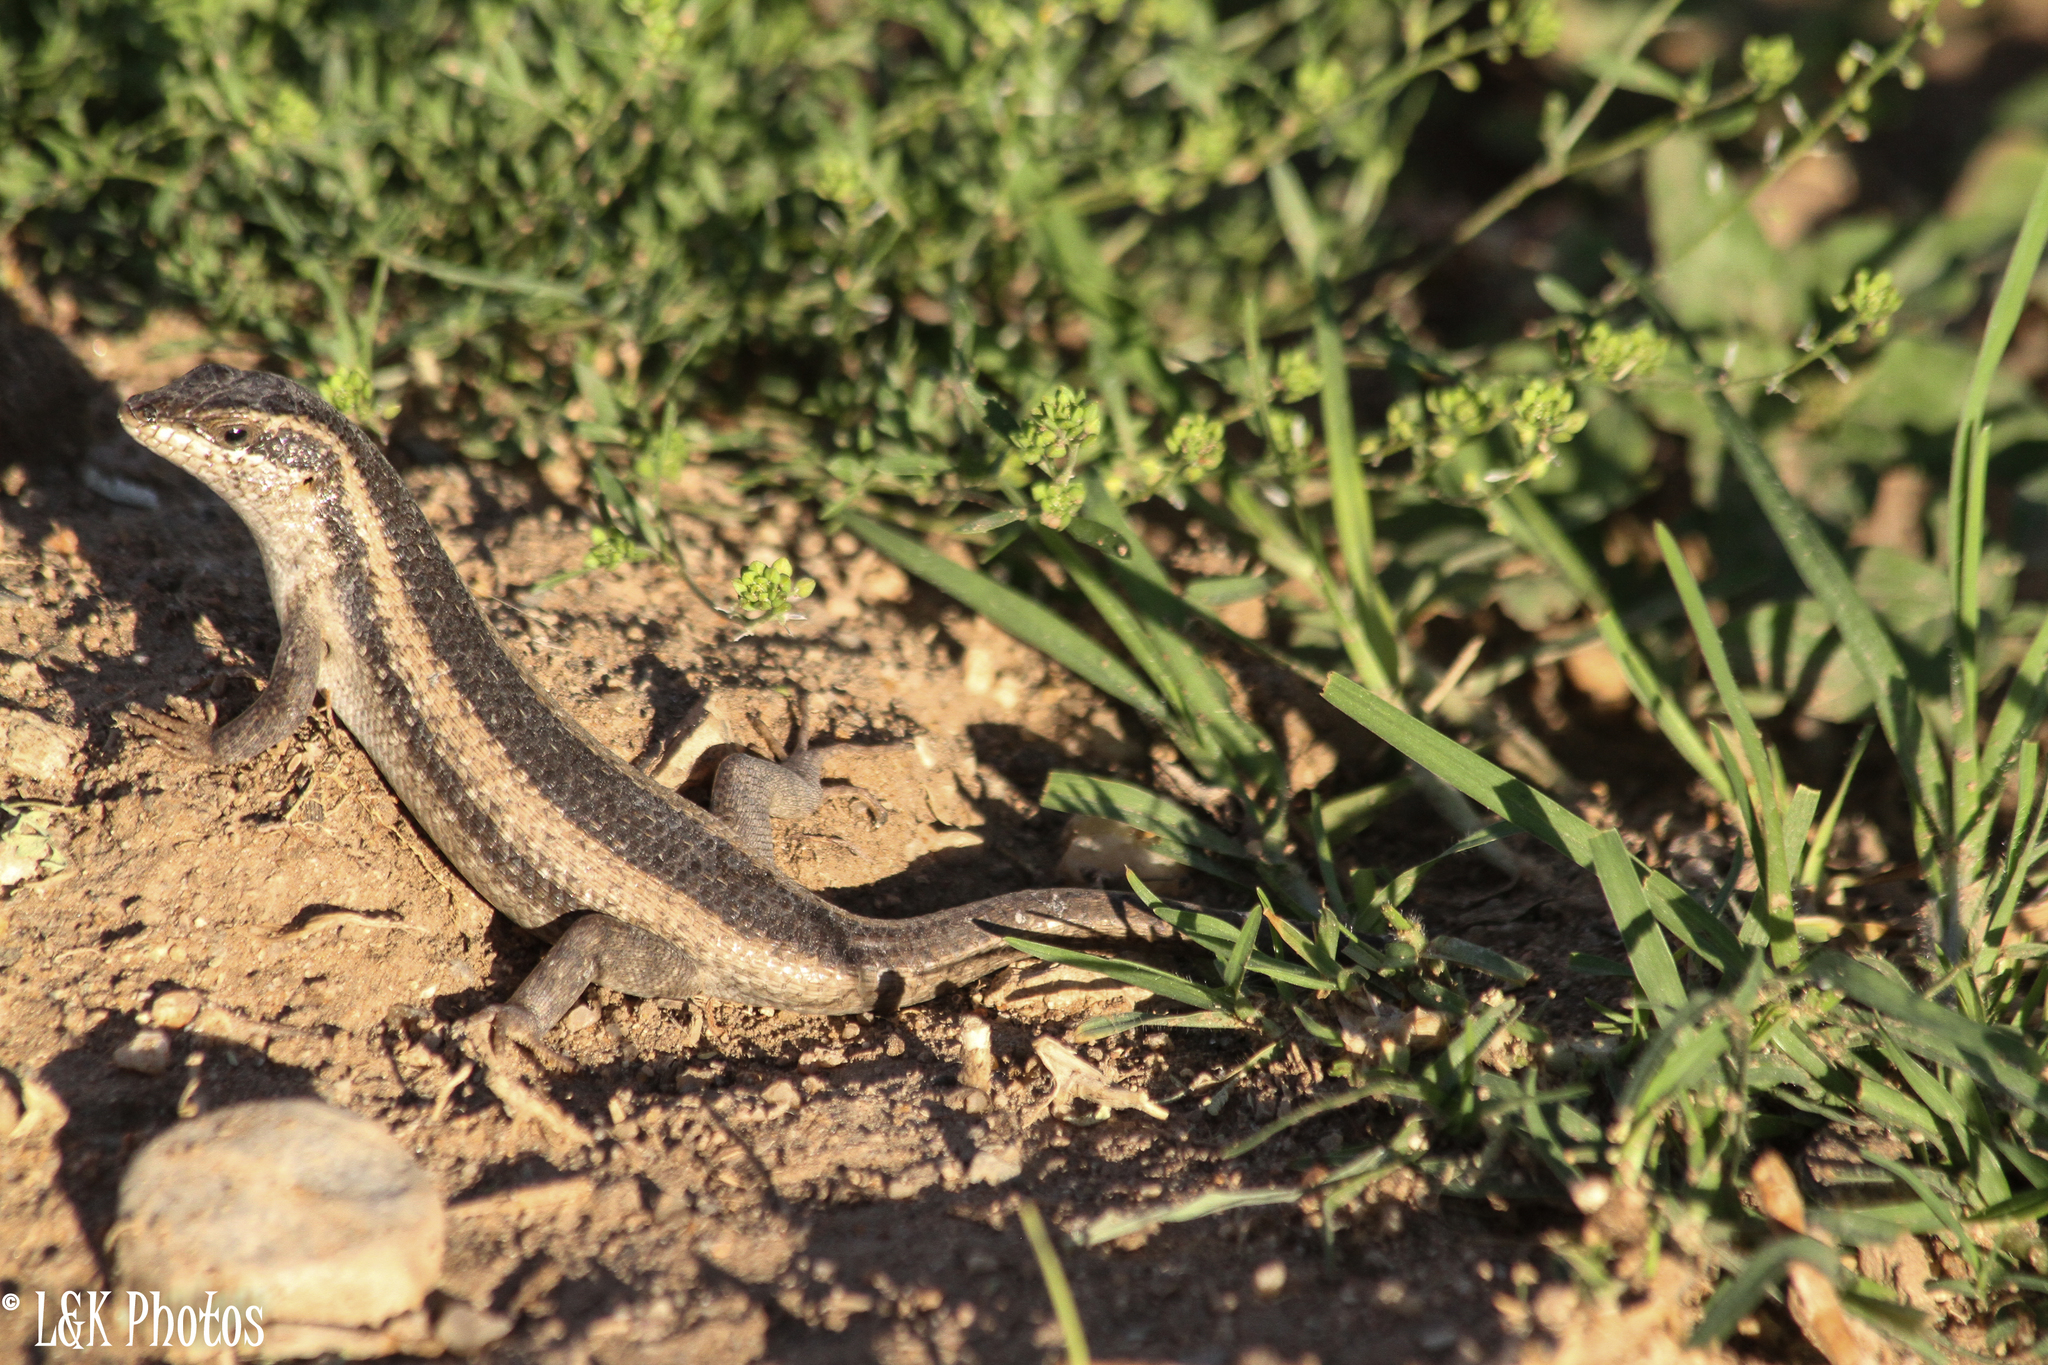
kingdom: Animalia
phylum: Chordata
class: Squamata
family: Scincidae
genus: Trachylepis
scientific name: Trachylepis spilogaster
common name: Kalahari tree skink
